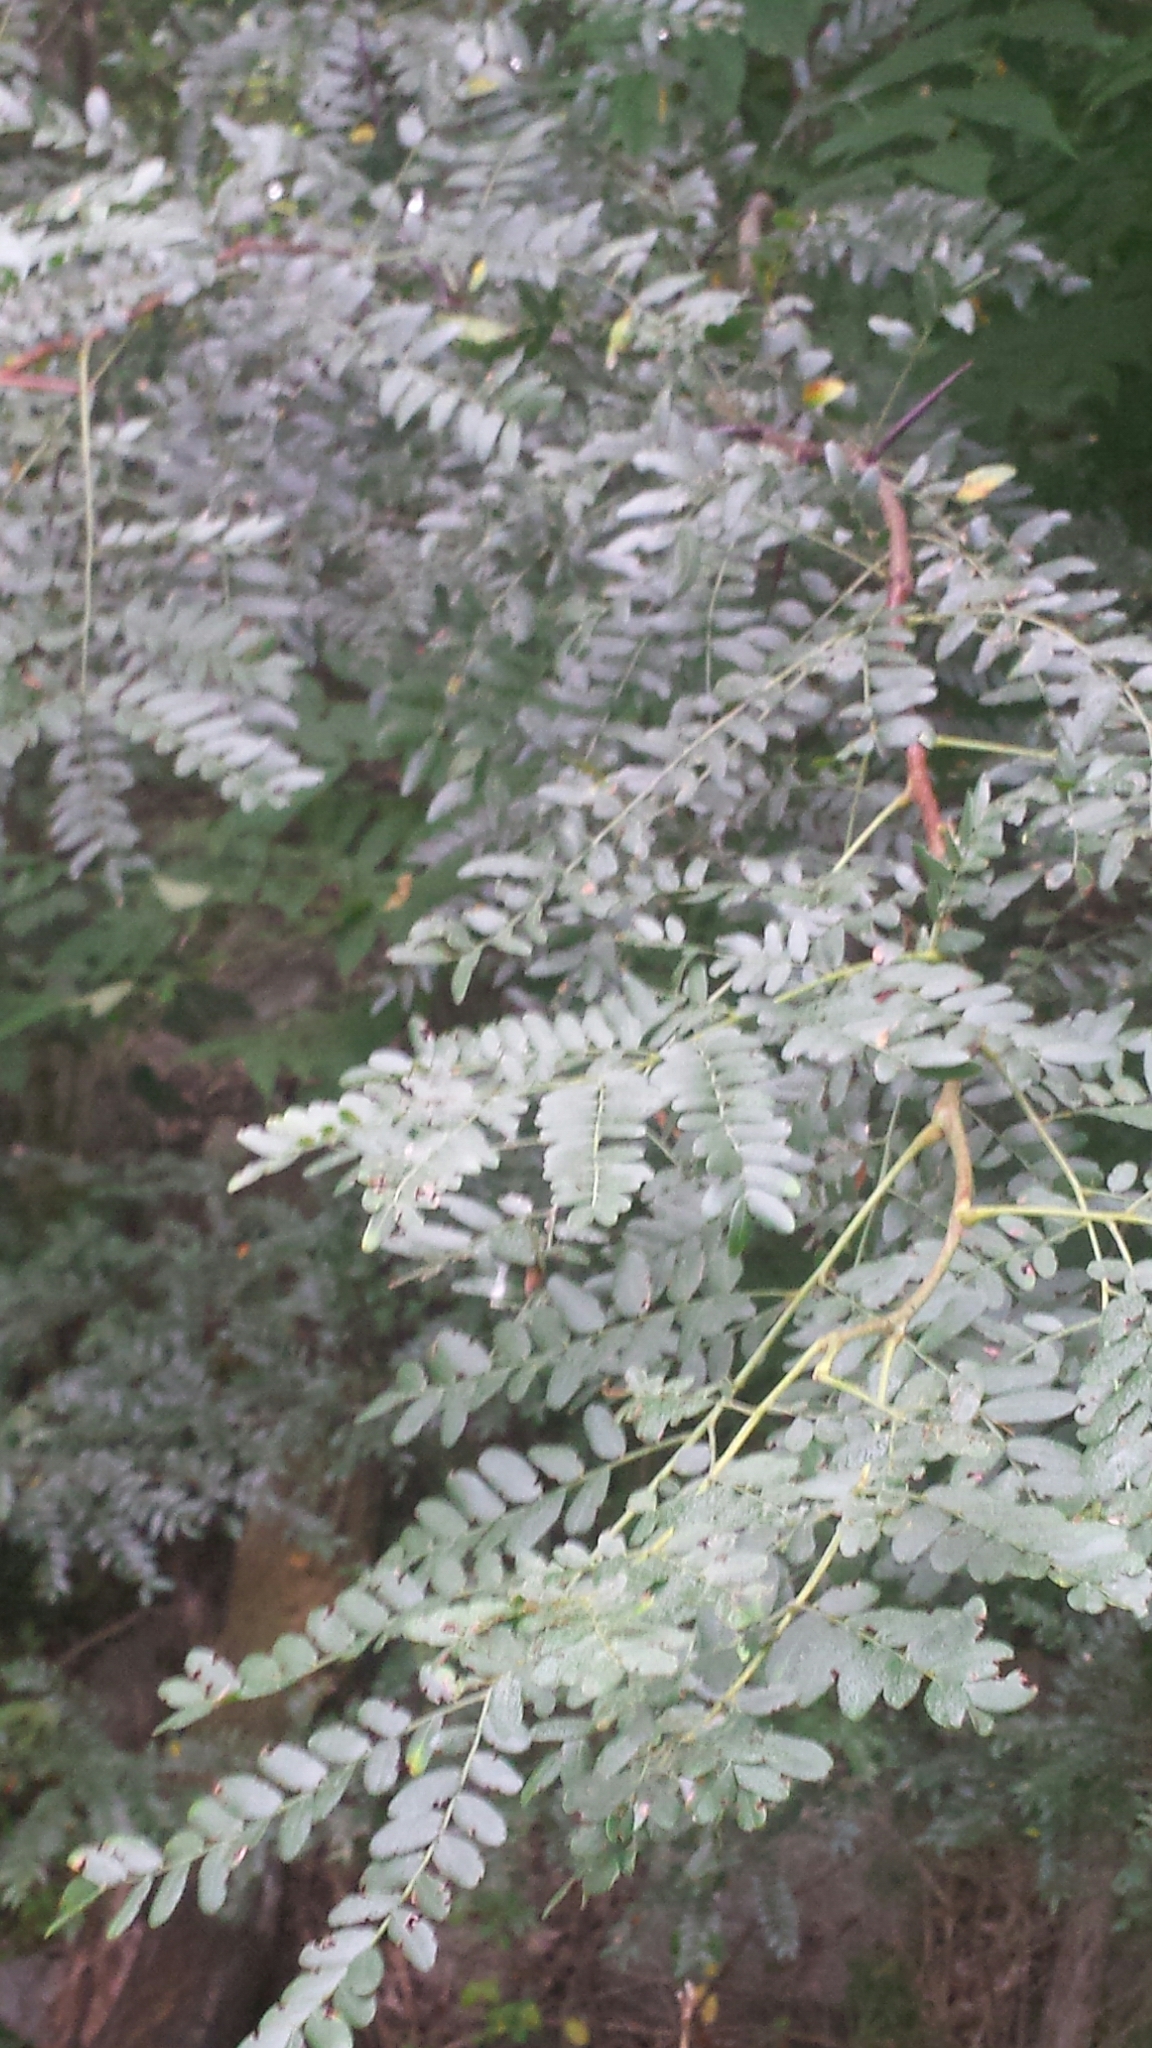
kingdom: Plantae
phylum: Tracheophyta
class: Magnoliopsida
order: Fabales
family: Fabaceae
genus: Gleditsia
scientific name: Gleditsia triacanthos
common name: Common honeylocust
